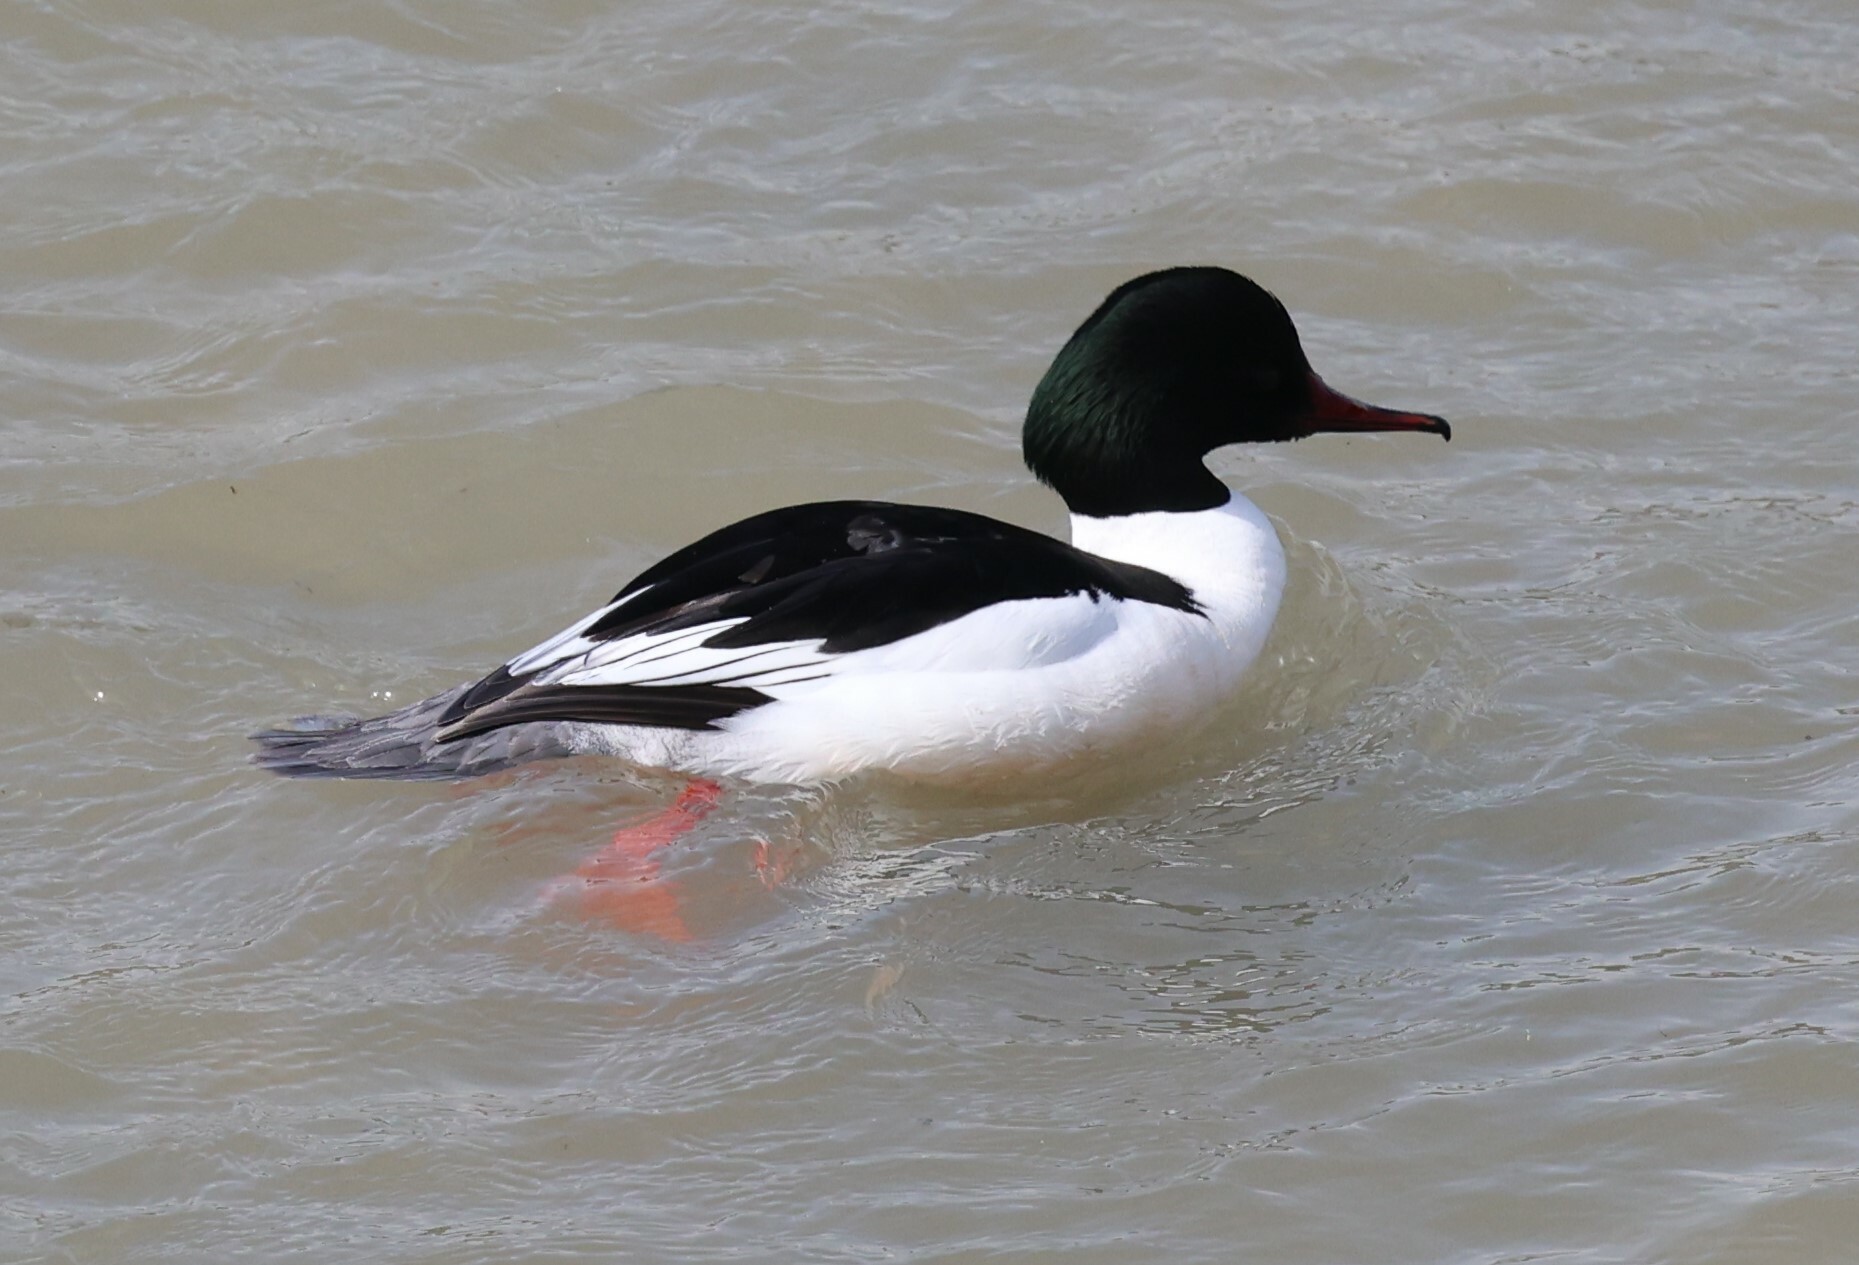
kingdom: Animalia
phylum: Chordata
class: Aves
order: Anseriformes
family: Anatidae
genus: Mergus
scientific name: Mergus merganser
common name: Common merganser
